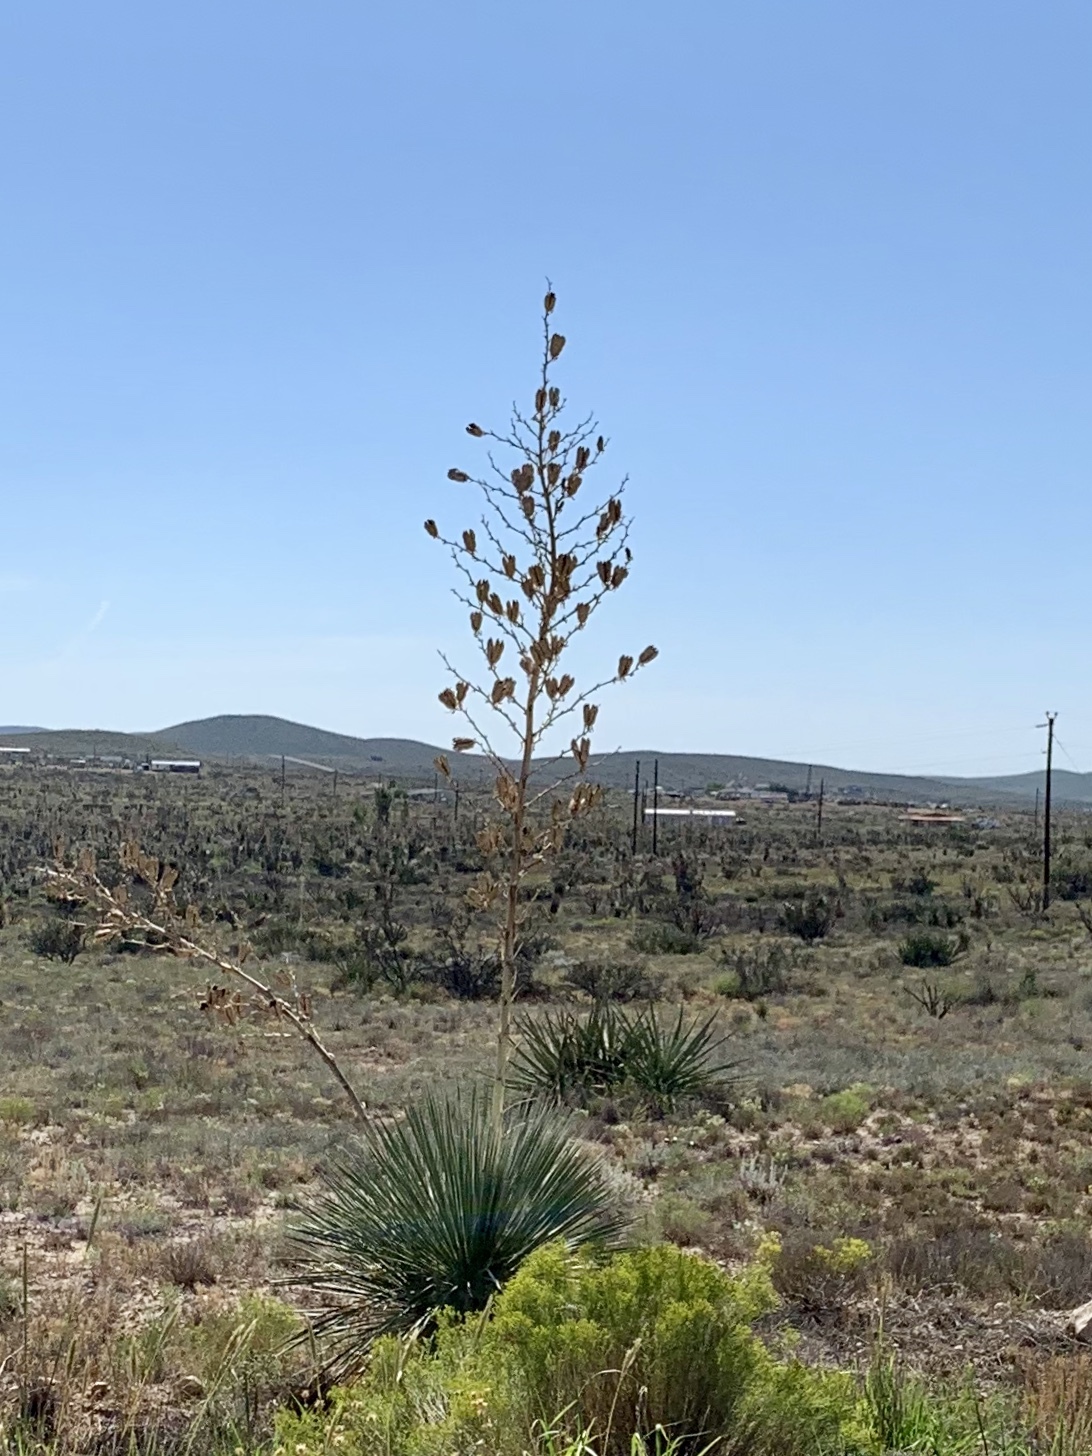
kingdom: Plantae
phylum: Tracheophyta
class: Liliopsida
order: Asparagales
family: Asparagaceae
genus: Yucca
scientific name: Yucca elata
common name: Palmella
